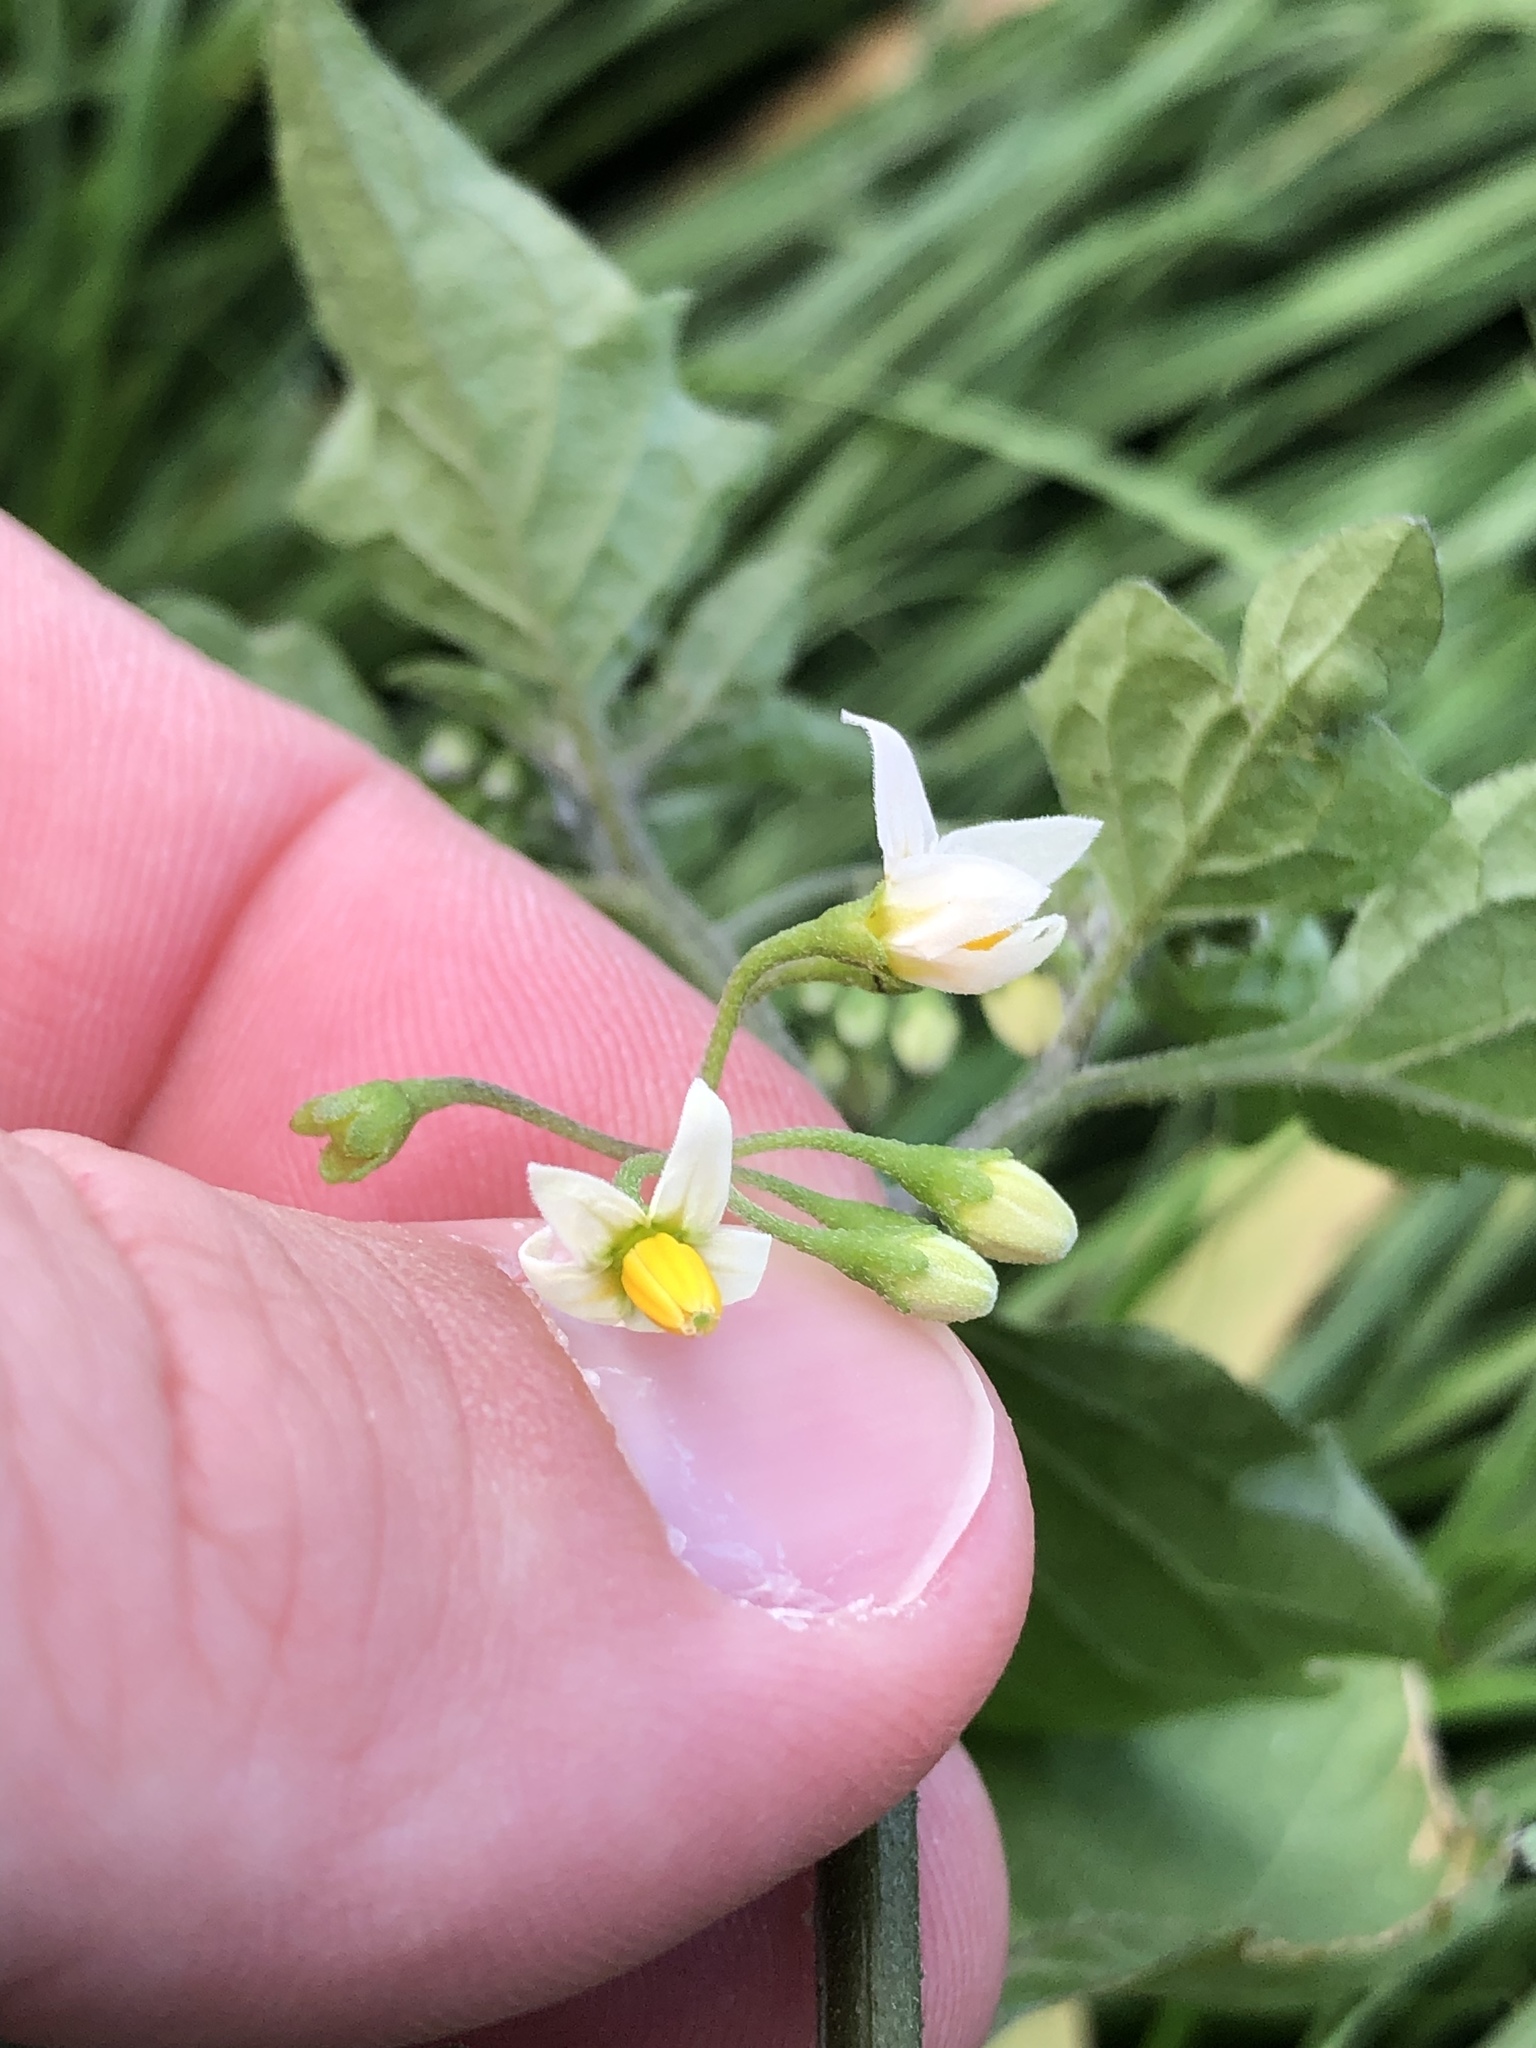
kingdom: Plantae
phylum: Tracheophyta
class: Magnoliopsida
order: Solanales
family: Solanaceae
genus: Solanum
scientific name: Solanum nigrum
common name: Black nightshade
